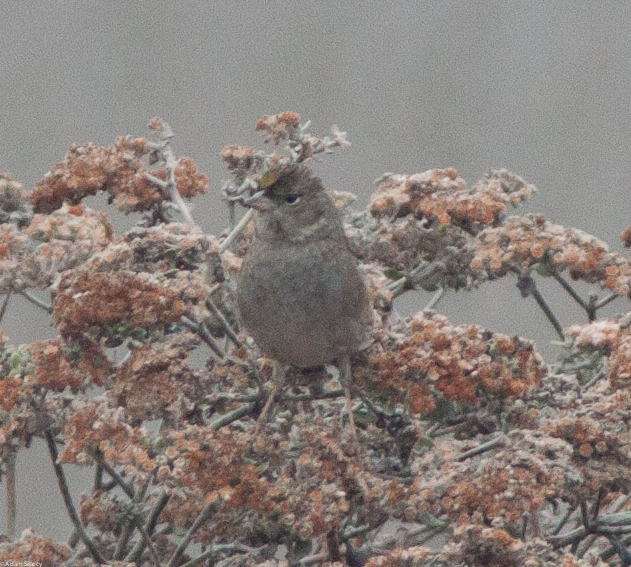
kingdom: Animalia
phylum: Chordata
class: Aves
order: Passeriformes
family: Passerellidae
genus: Zonotrichia
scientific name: Zonotrichia atricapilla
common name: Golden-crowned sparrow
